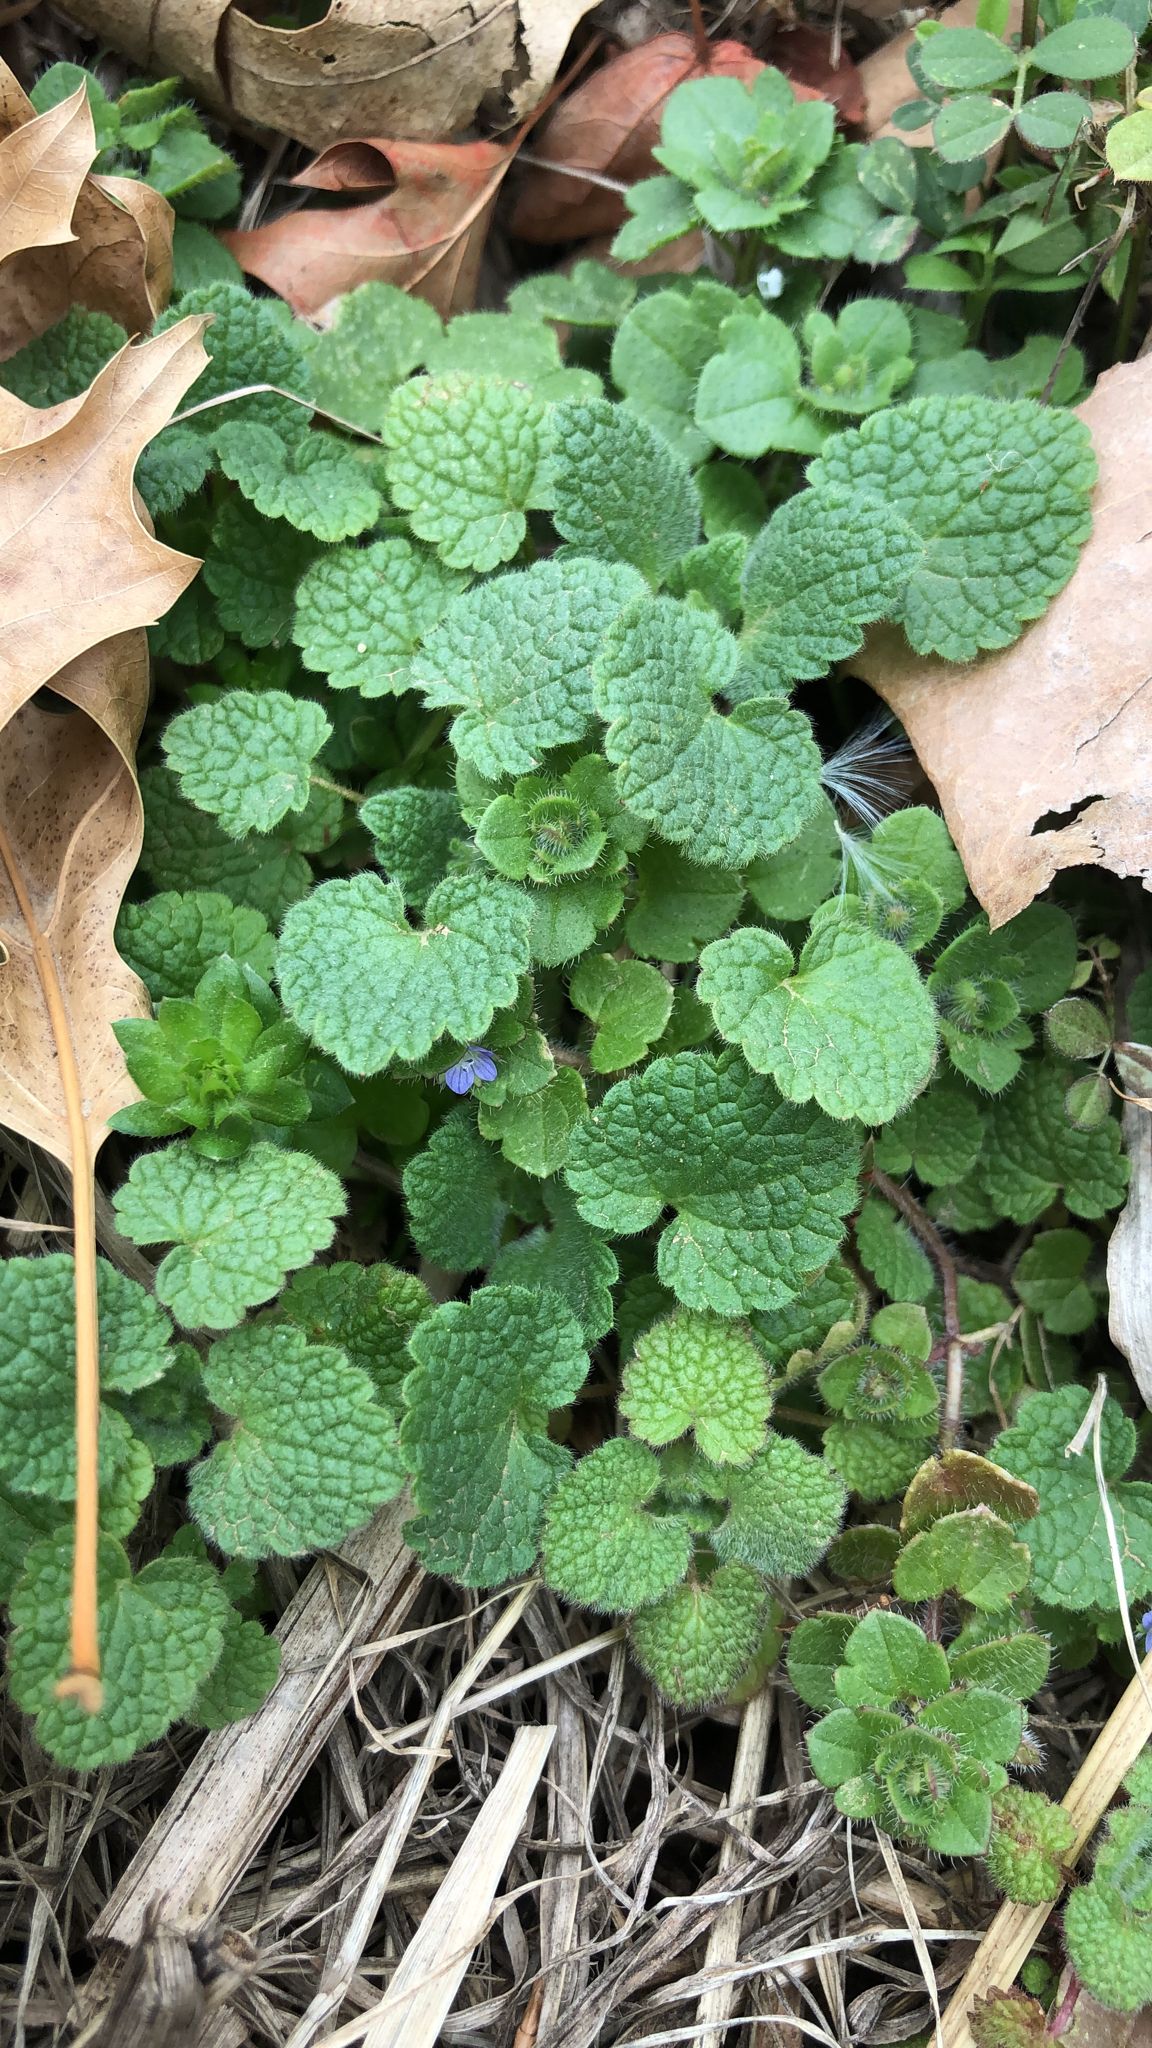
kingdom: Plantae
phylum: Tracheophyta
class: Magnoliopsida
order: Lamiales
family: Lamiaceae
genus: Lamium
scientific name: Lamium purpureum
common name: Red dead-nettle
